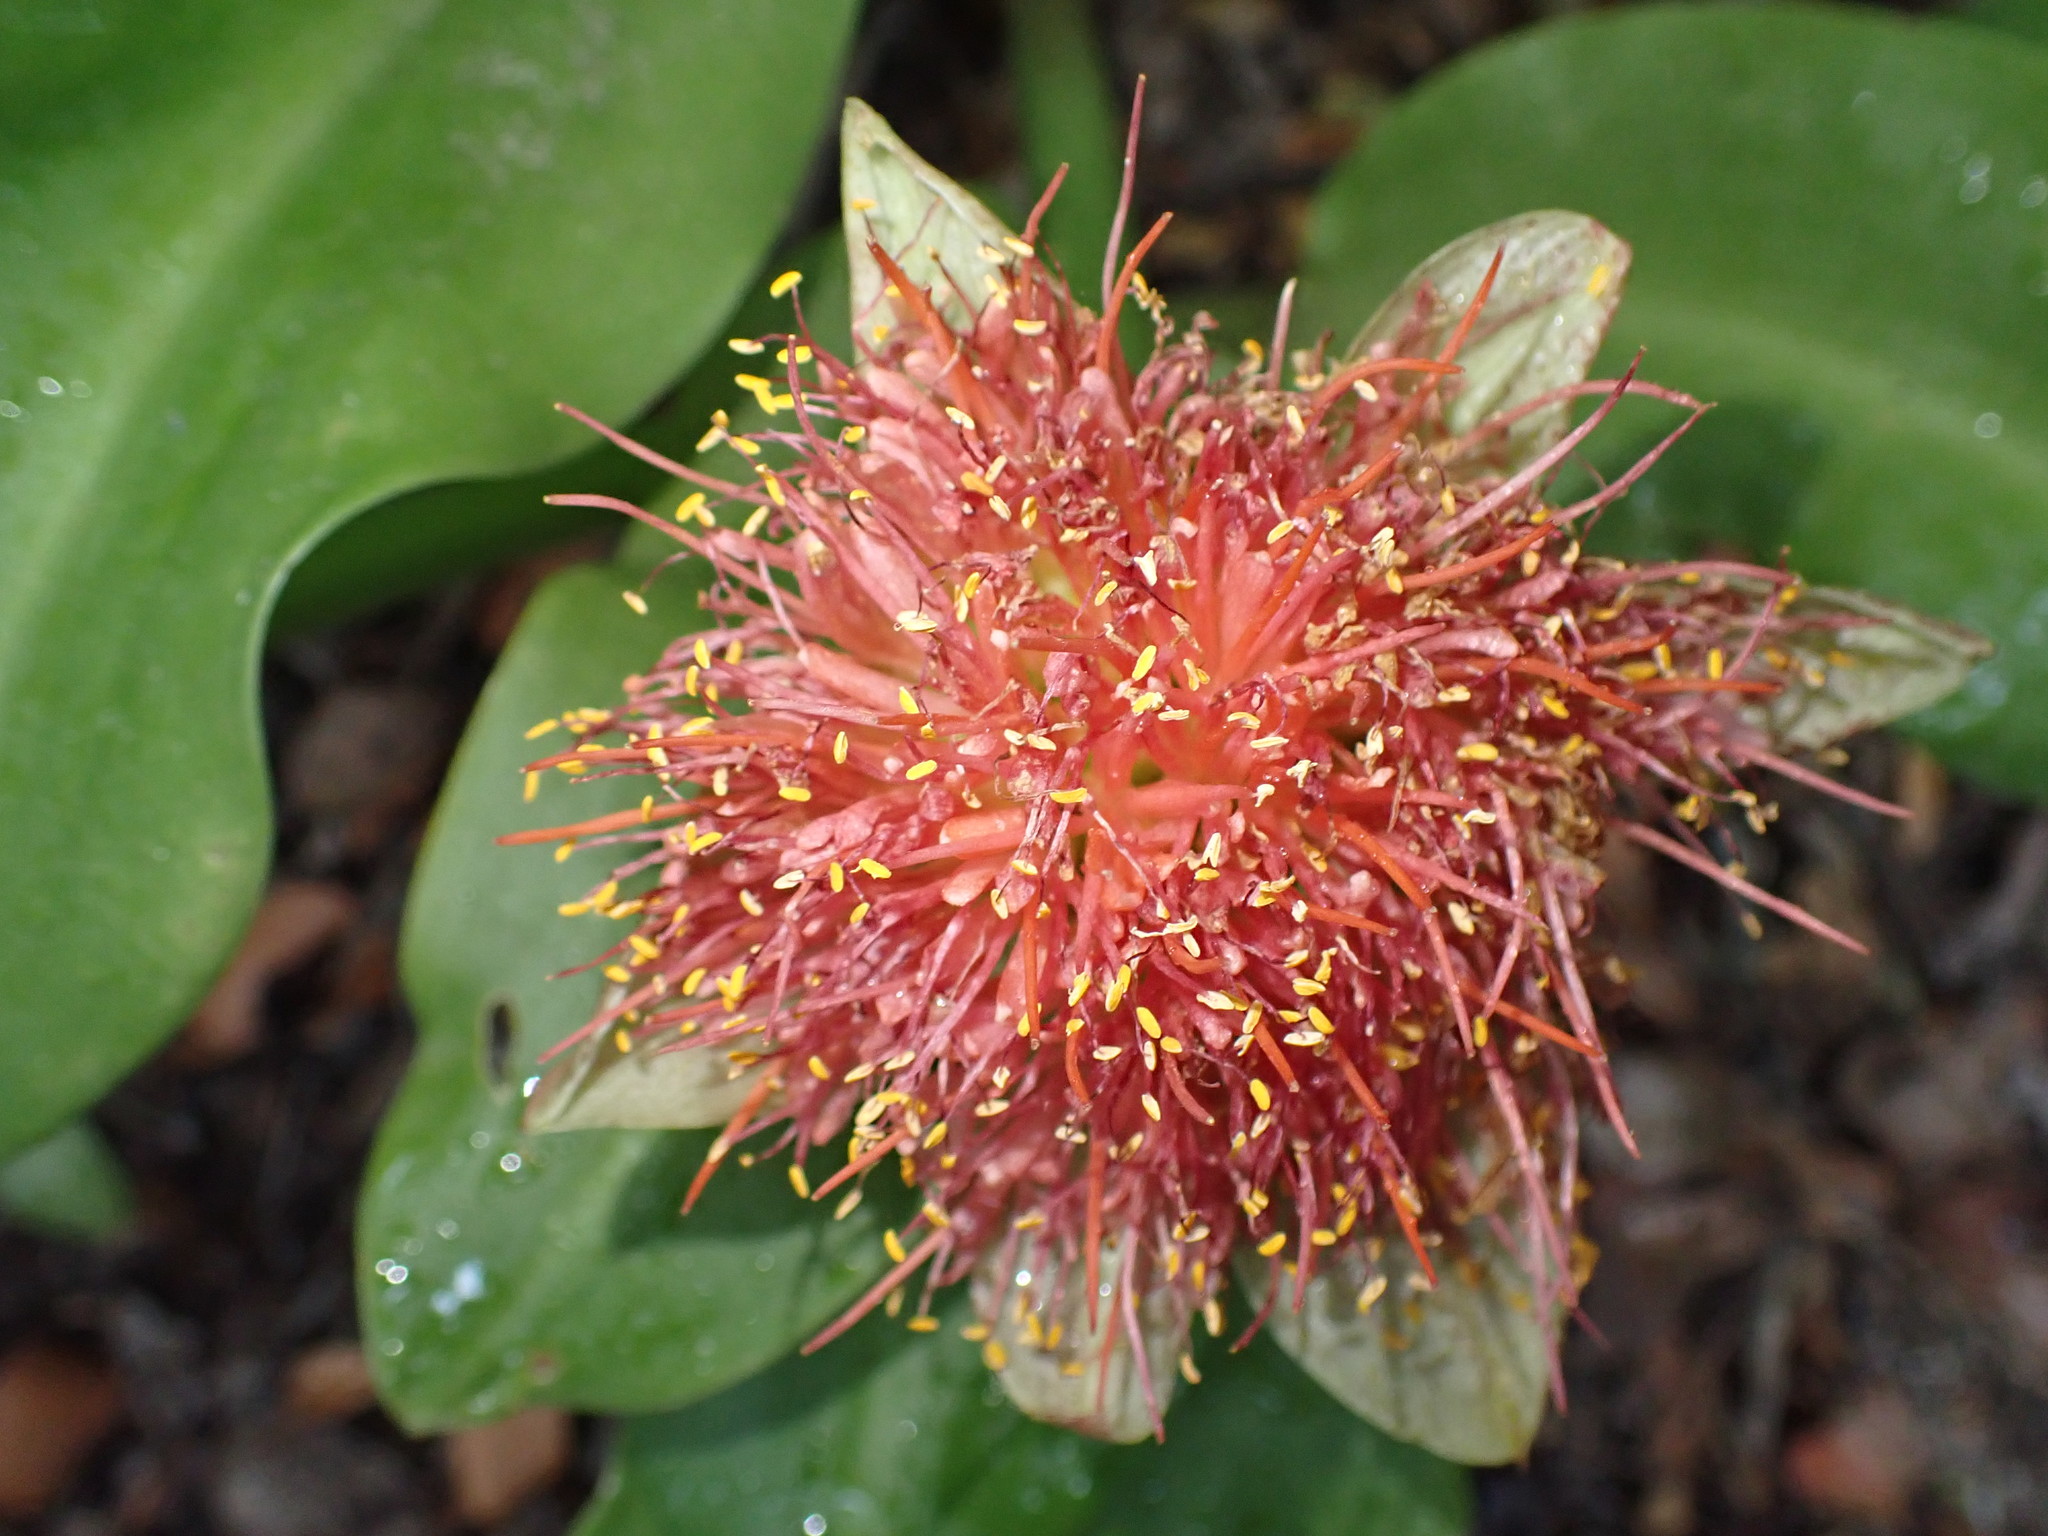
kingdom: Plantae
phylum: Tracheophyta
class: Liliopsida
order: Asparagales
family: Amaryllidaceae
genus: Scadoxus
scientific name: Scadoxus puniceus
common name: Royal-paintbrush
